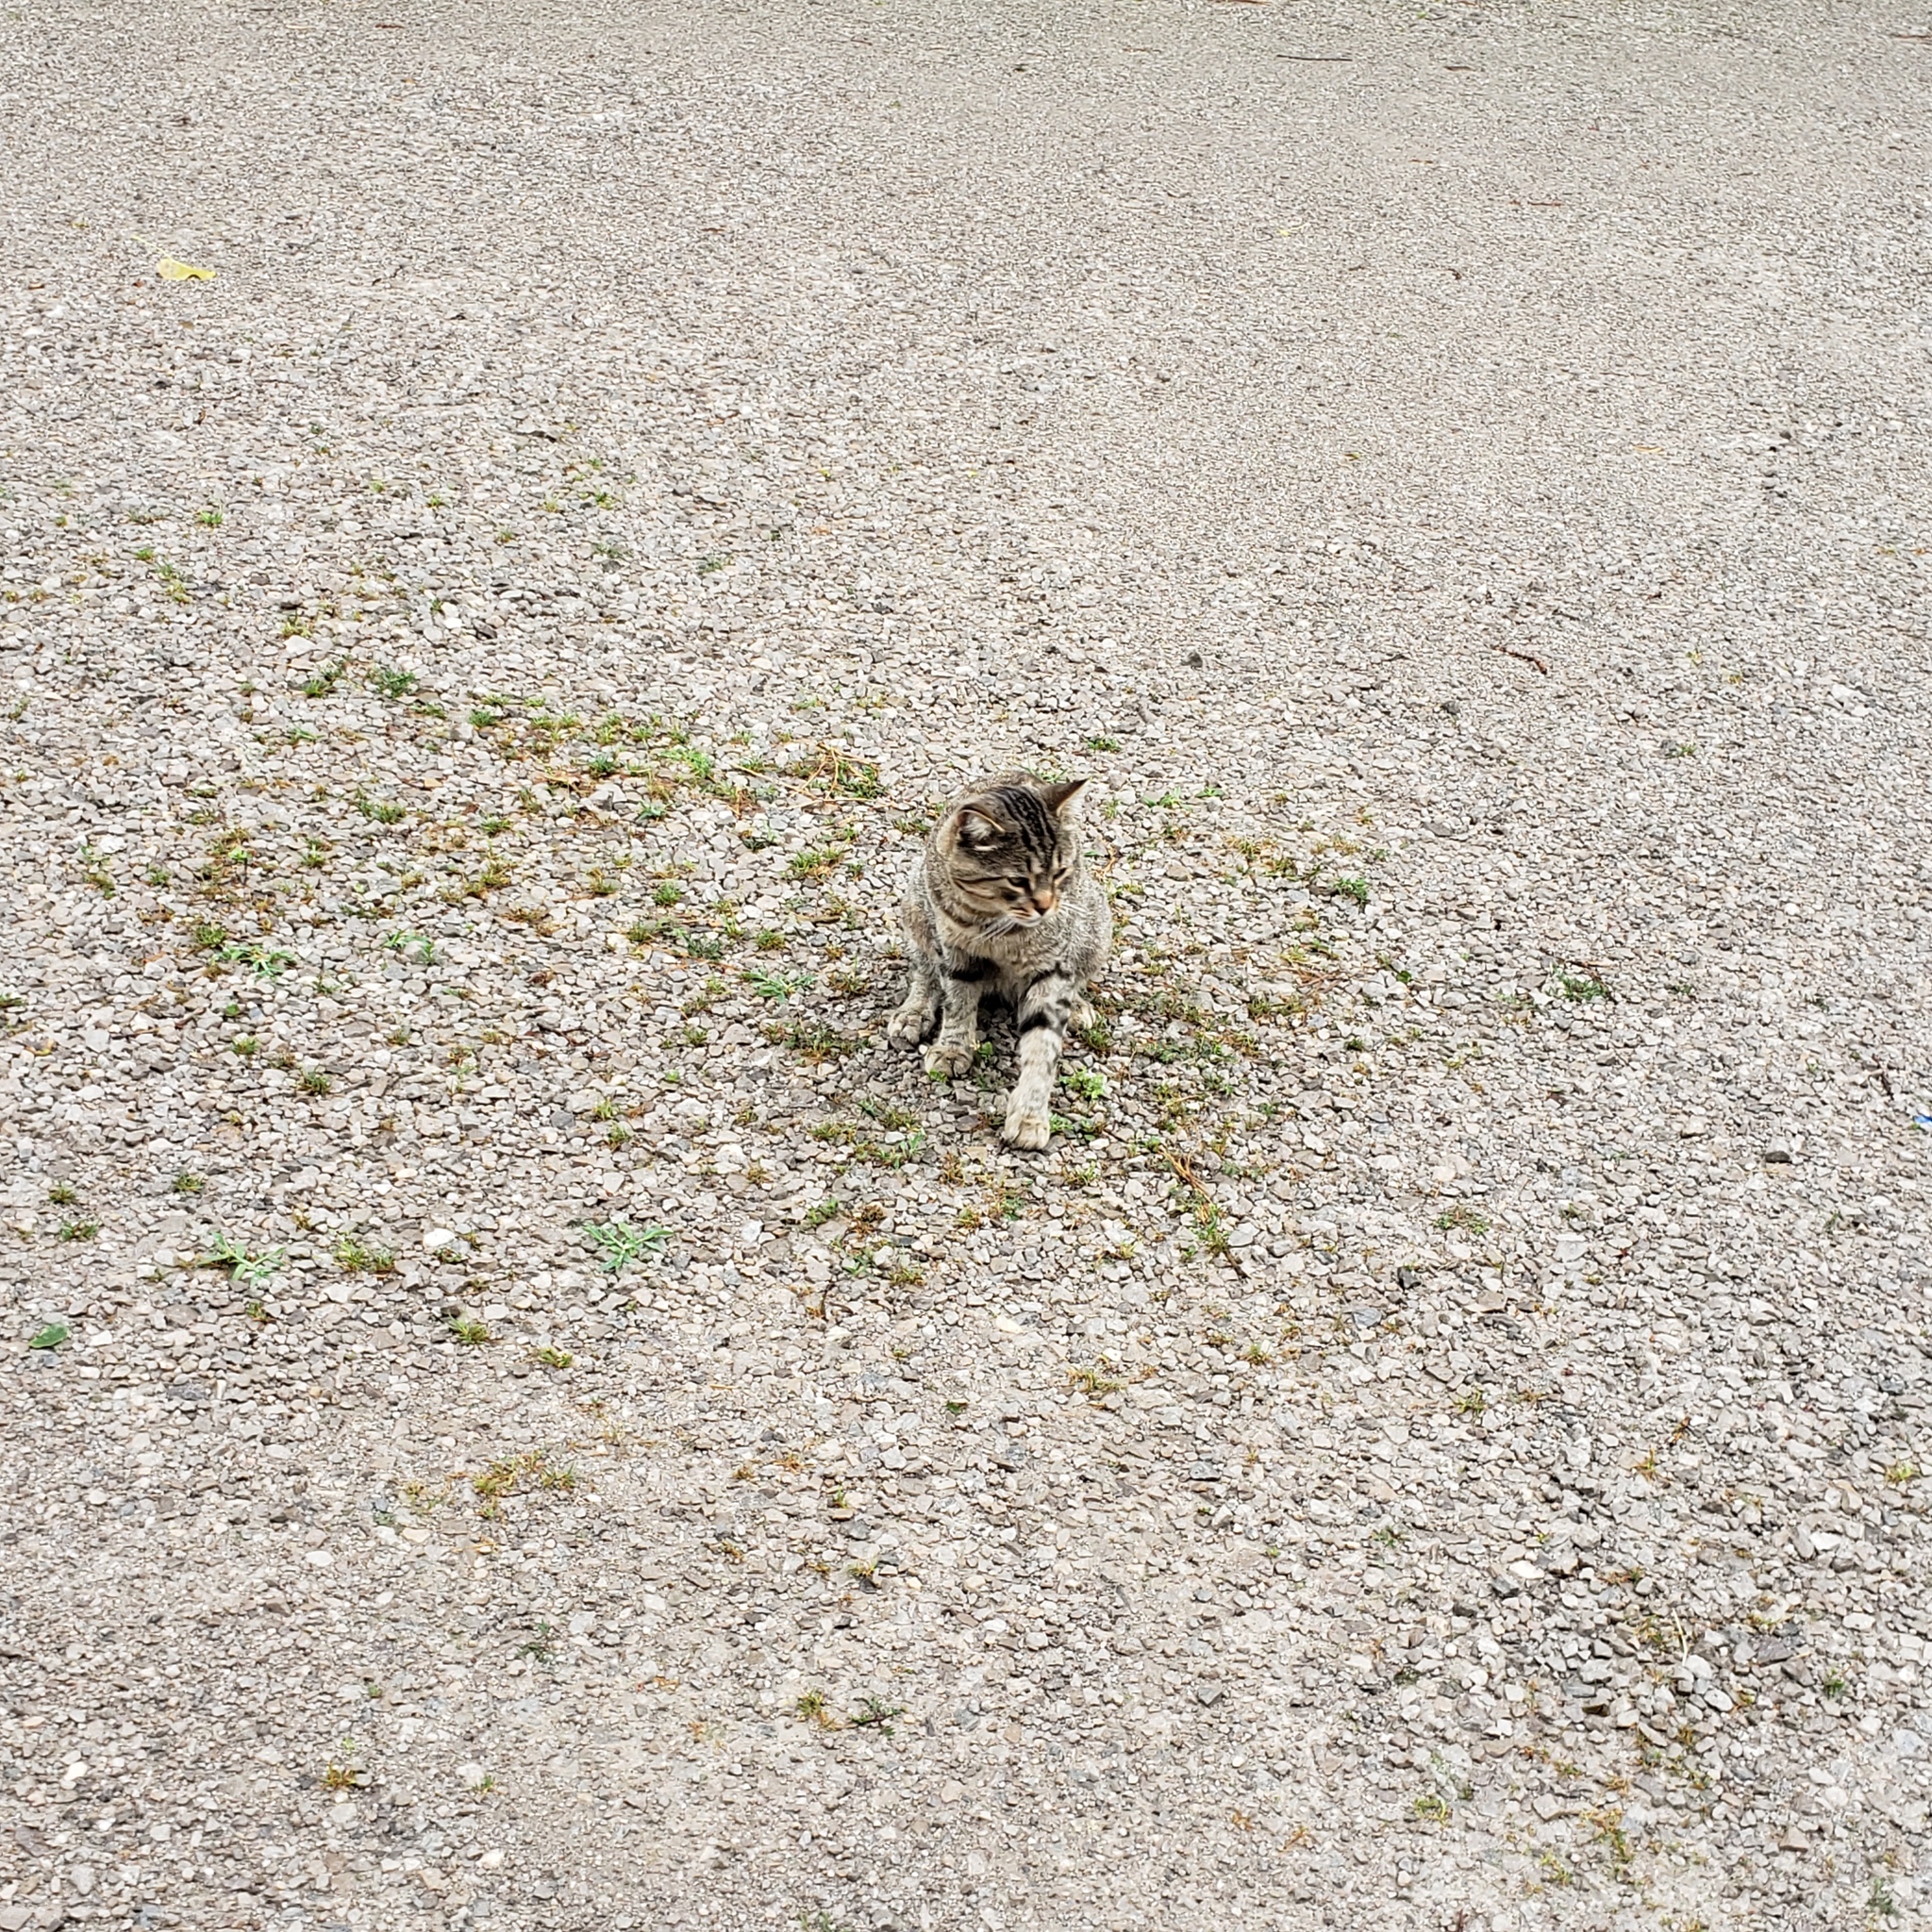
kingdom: Animalia
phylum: Chordata
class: Mammalia
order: Carnivora
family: Felidae
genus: Felis
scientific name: Felis catus
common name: Domestic cat
